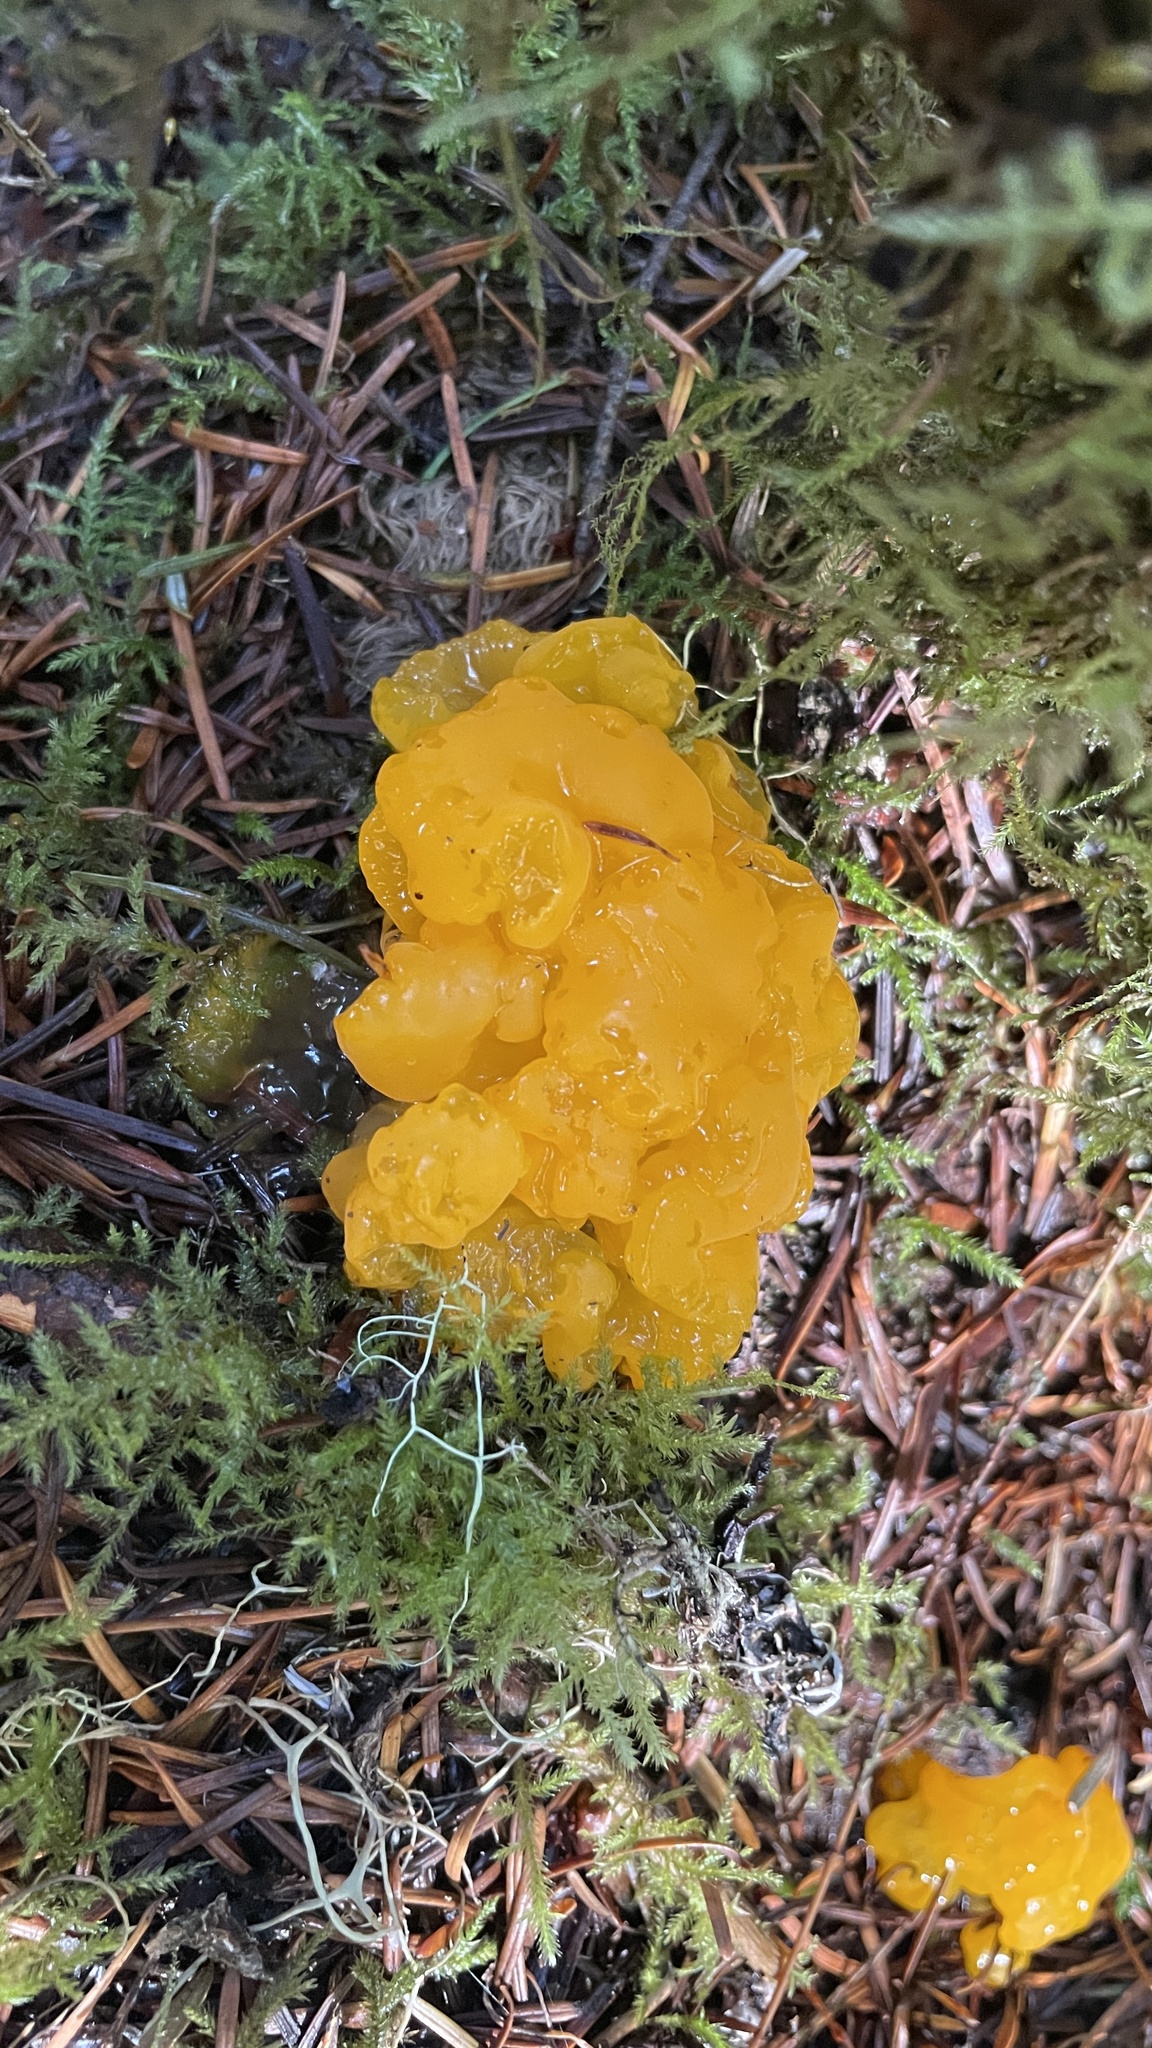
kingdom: Fungi
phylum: Basidiomycota
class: Dacrymycetes
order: Dacrymycetales
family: Dacrymycetaceae
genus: Dacrymyces
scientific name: Dacrymyces chrysospermus
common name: Orange jelly spot
